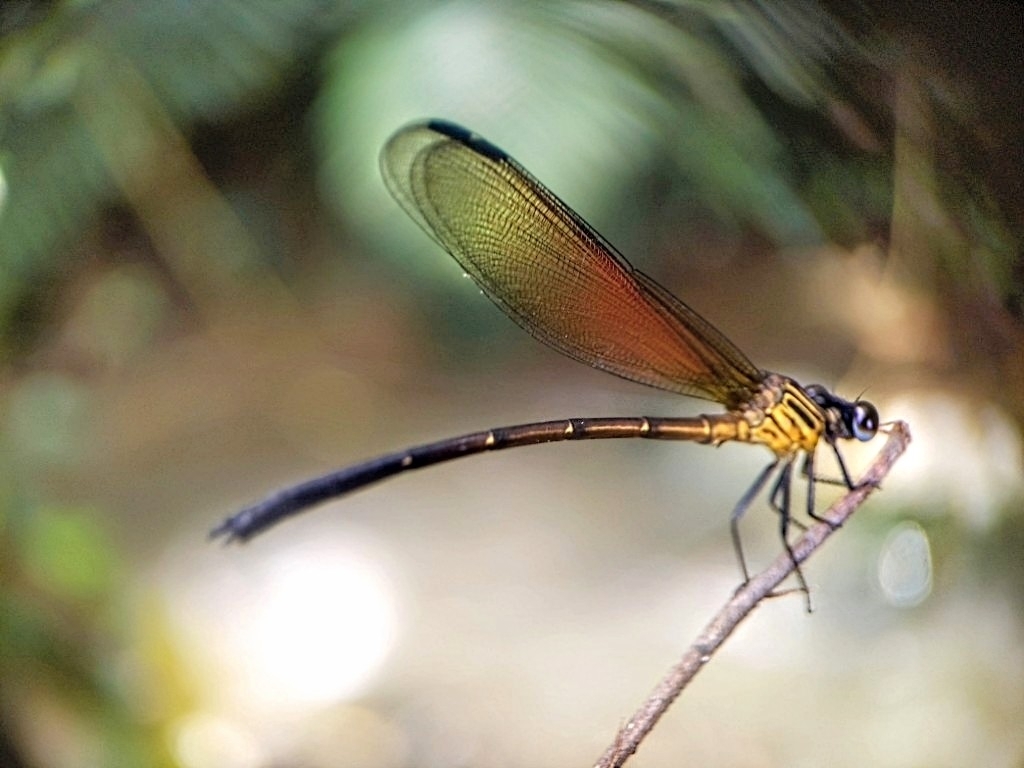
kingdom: Animalia
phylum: Arthropoda
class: Insecta
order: Odonata
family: Euphaeidae
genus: Euphaea
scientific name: Euphaea ochracea
